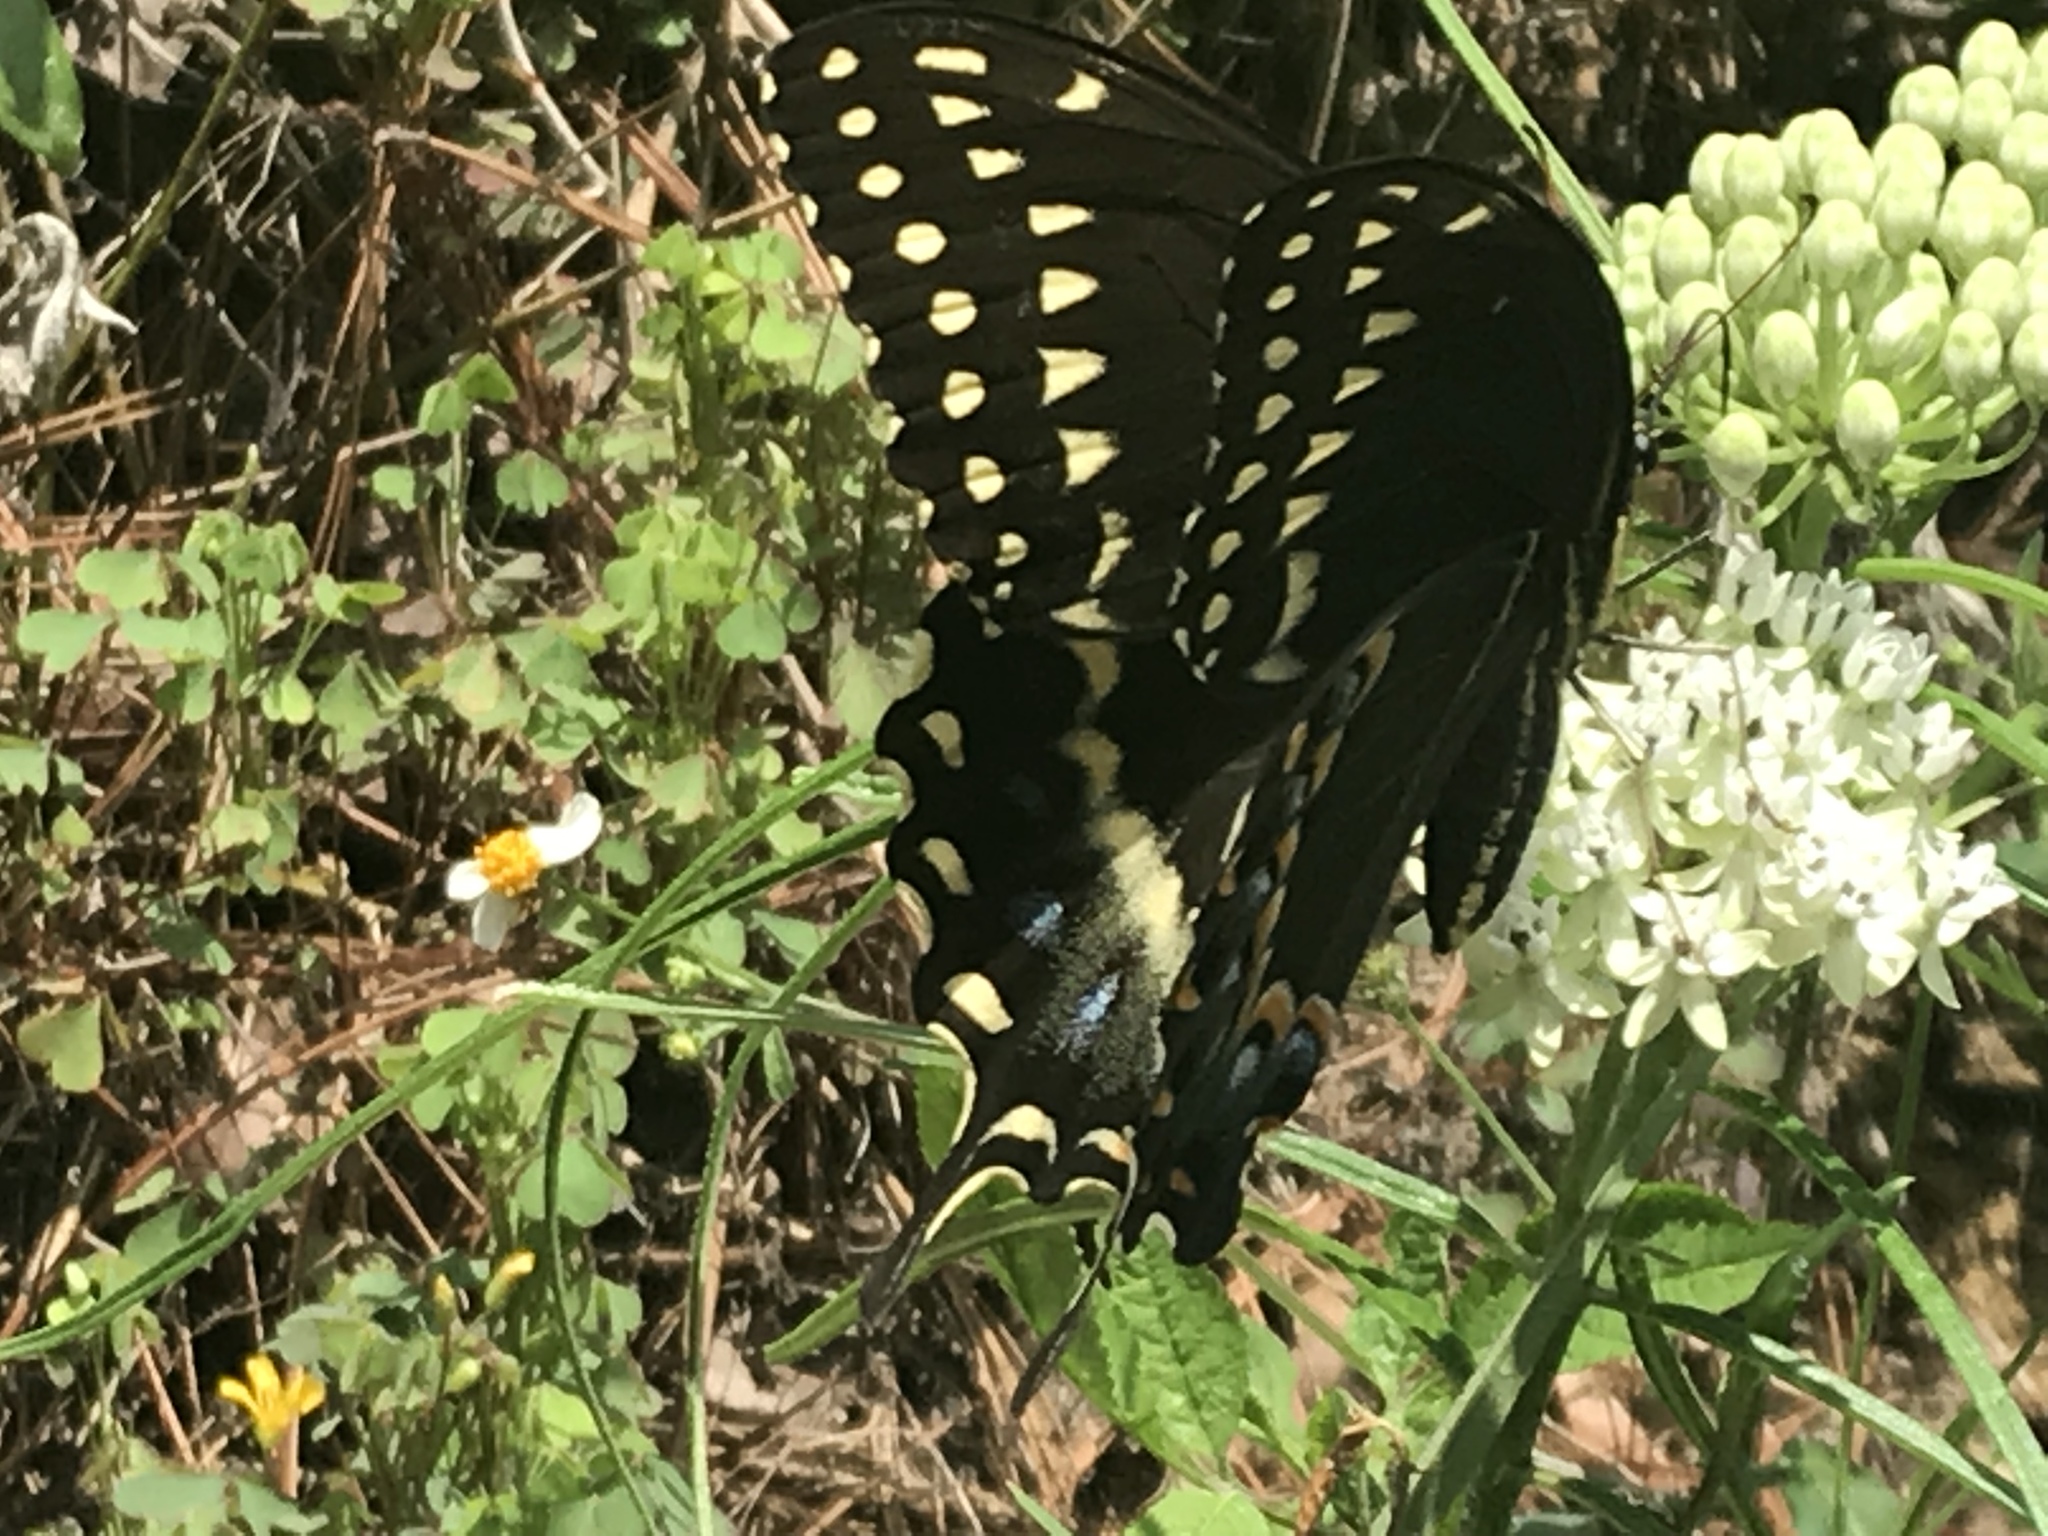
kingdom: Animalia
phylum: Arthropoda
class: Insecta
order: Lepidoptera
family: Papilionidae
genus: Papilio
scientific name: Papilio palamedes
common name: Palamedes swallowtail
